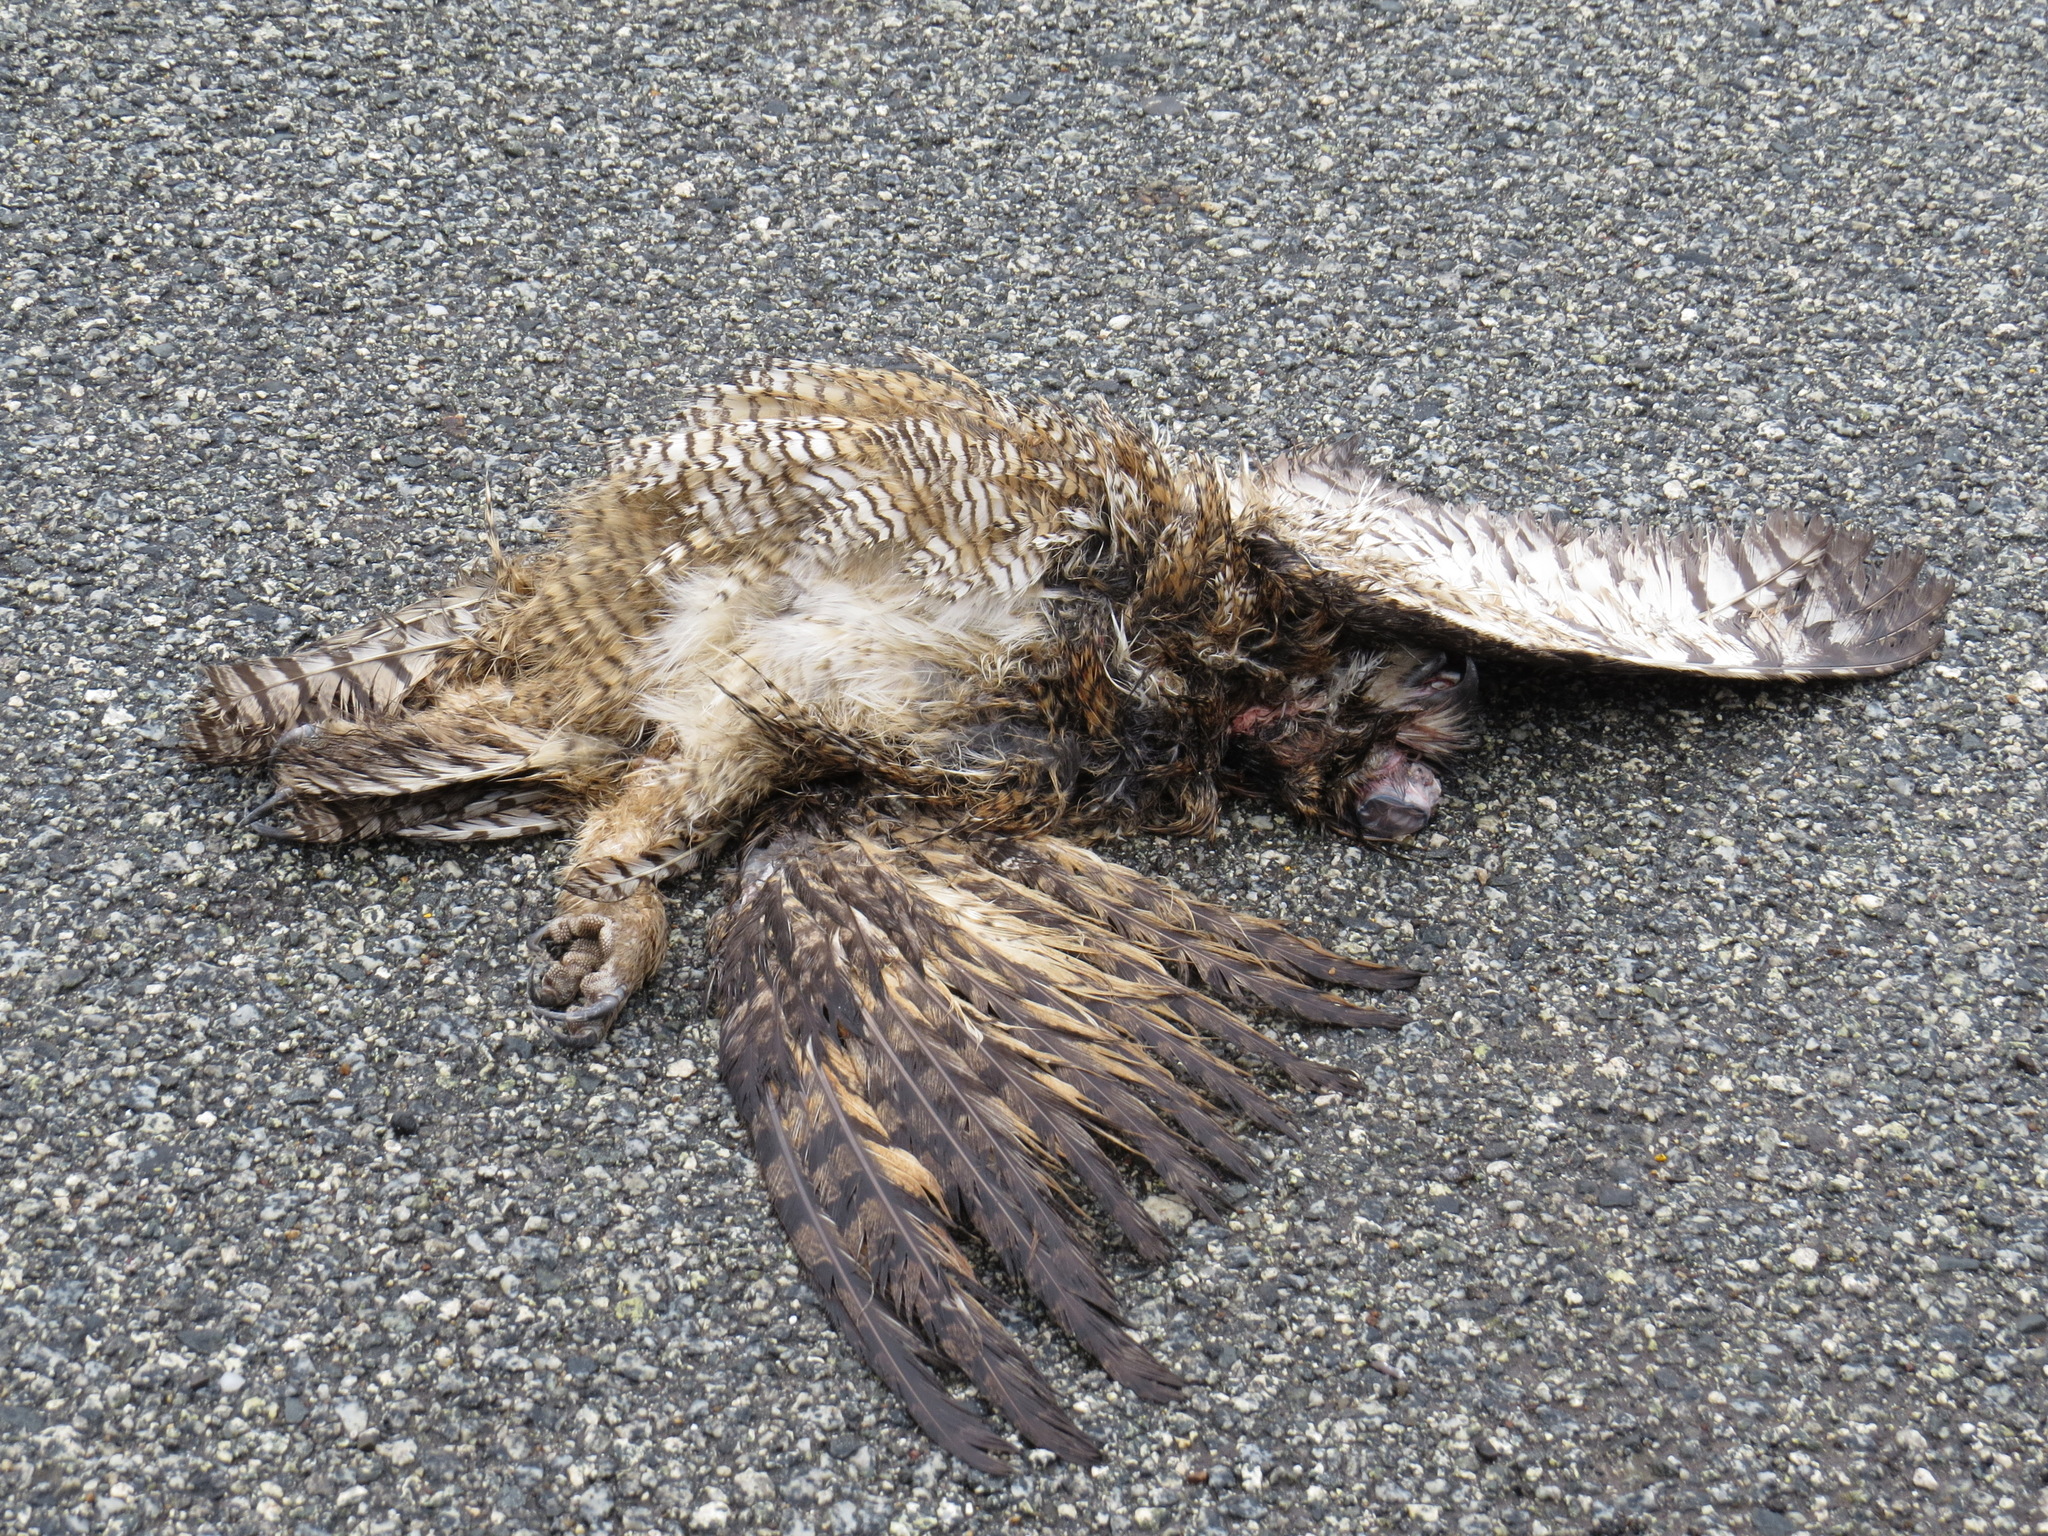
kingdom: Animalia
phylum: Chordata
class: Aves
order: Strigiformes
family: Strigidae
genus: Bubo
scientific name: Bubo virginianus
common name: Great horned owl
